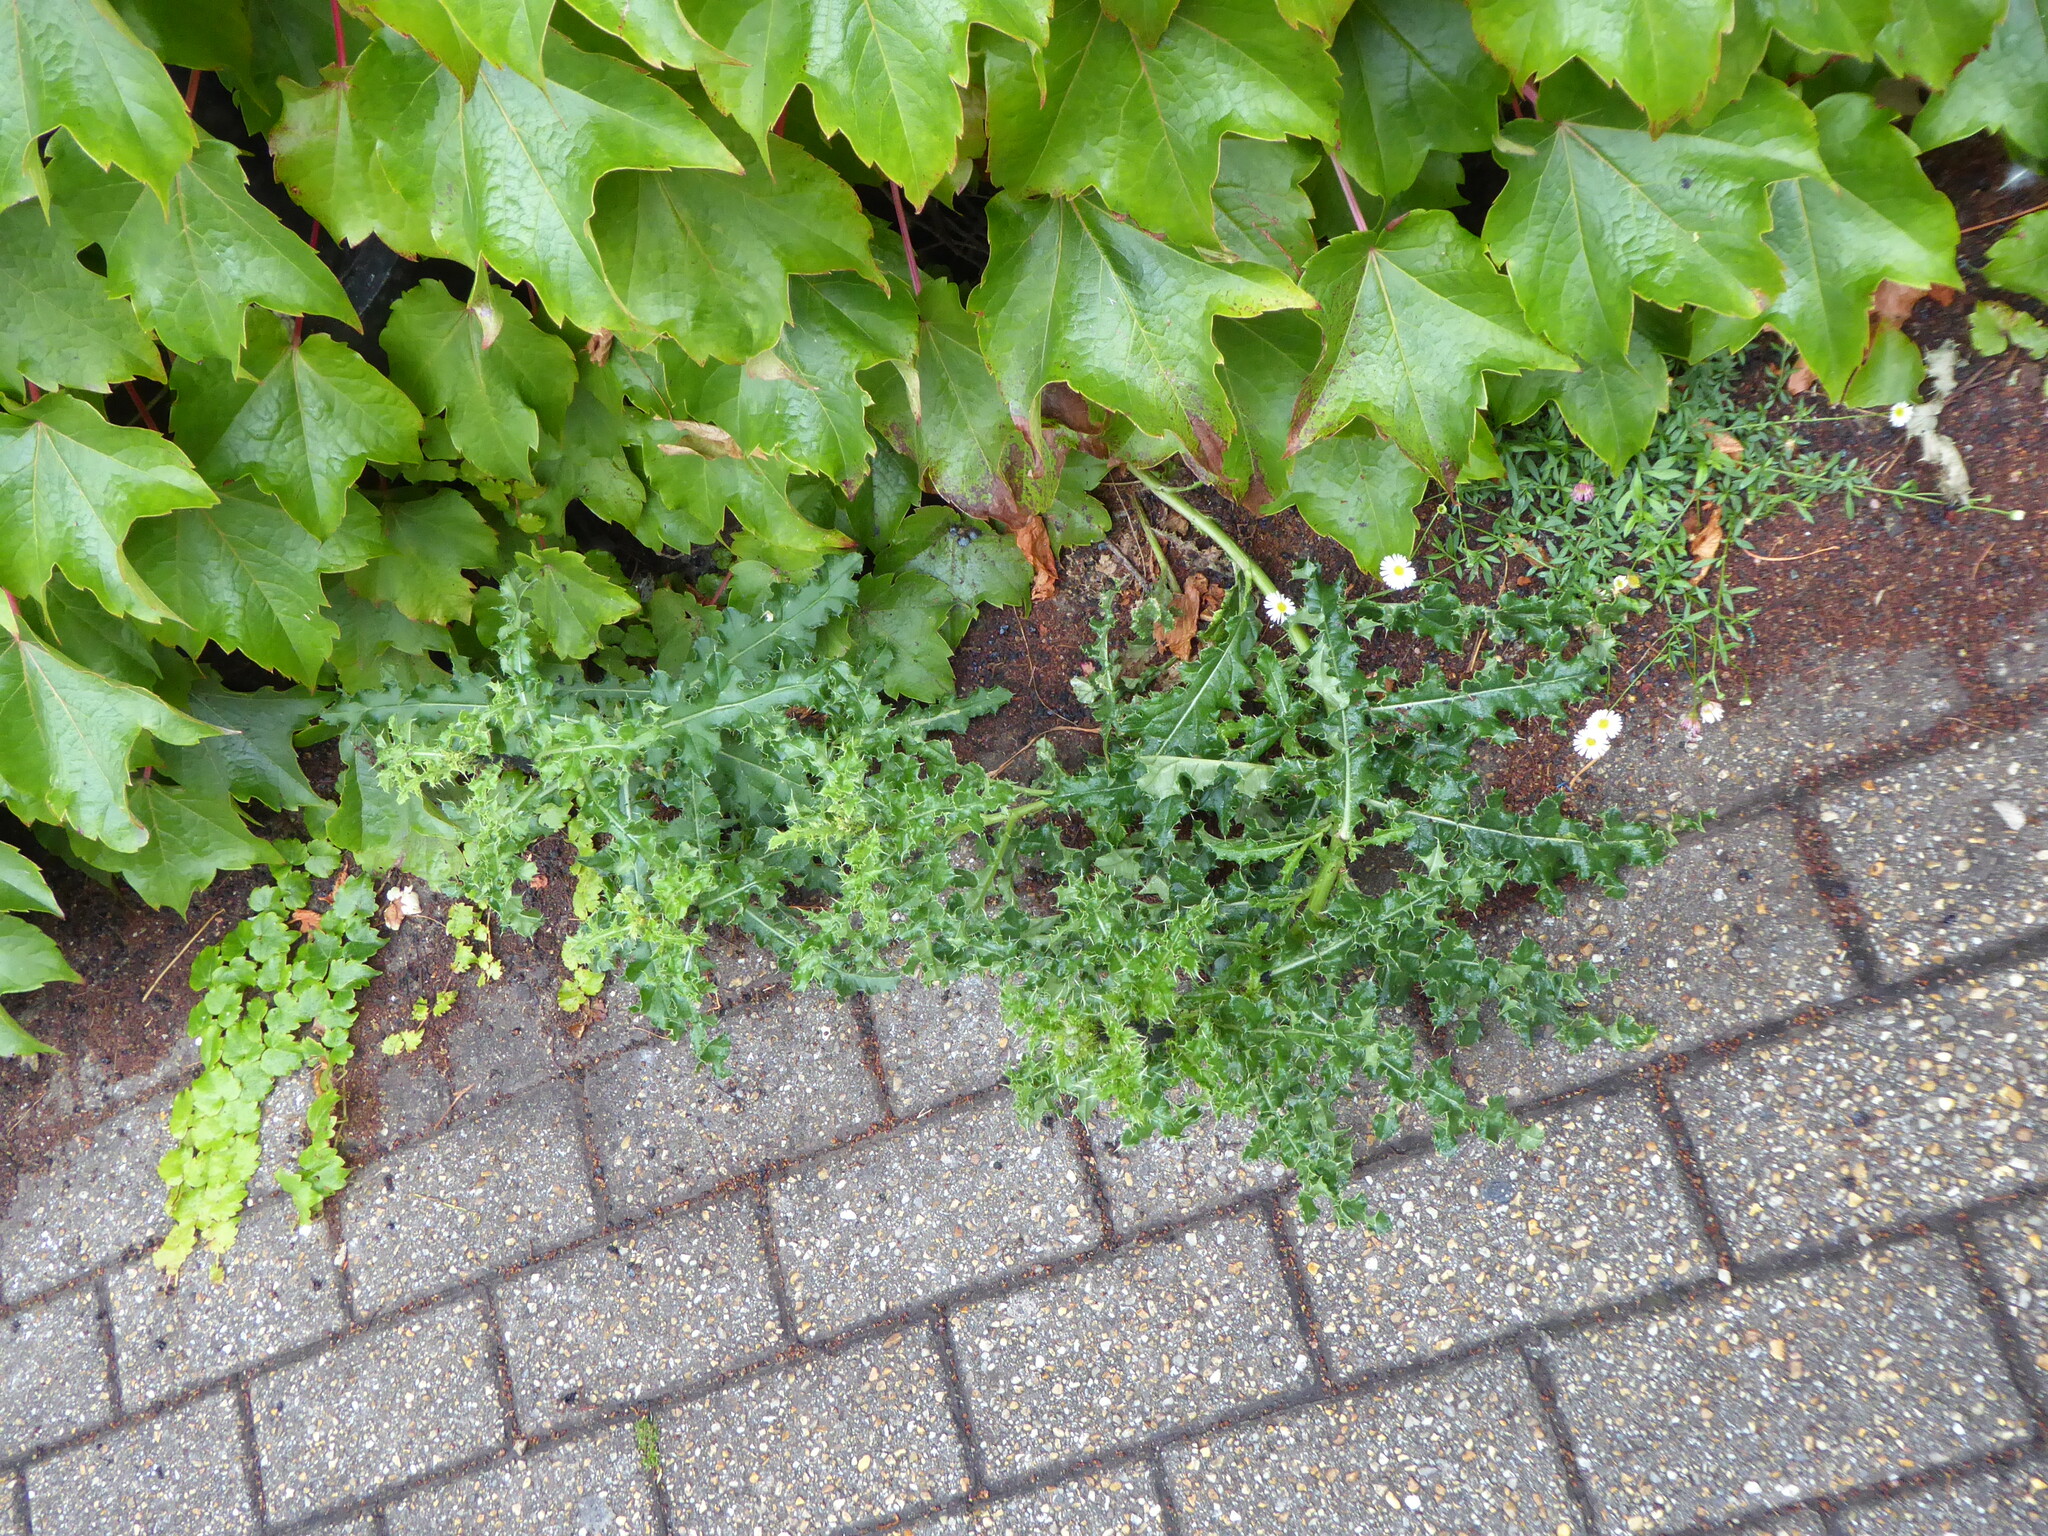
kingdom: Plantae
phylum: Tracheophyta
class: Magnoliopsida
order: Asterales
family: Asteraceae
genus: Cirsium
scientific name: Cirsium arvense
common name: Creeping thistle
